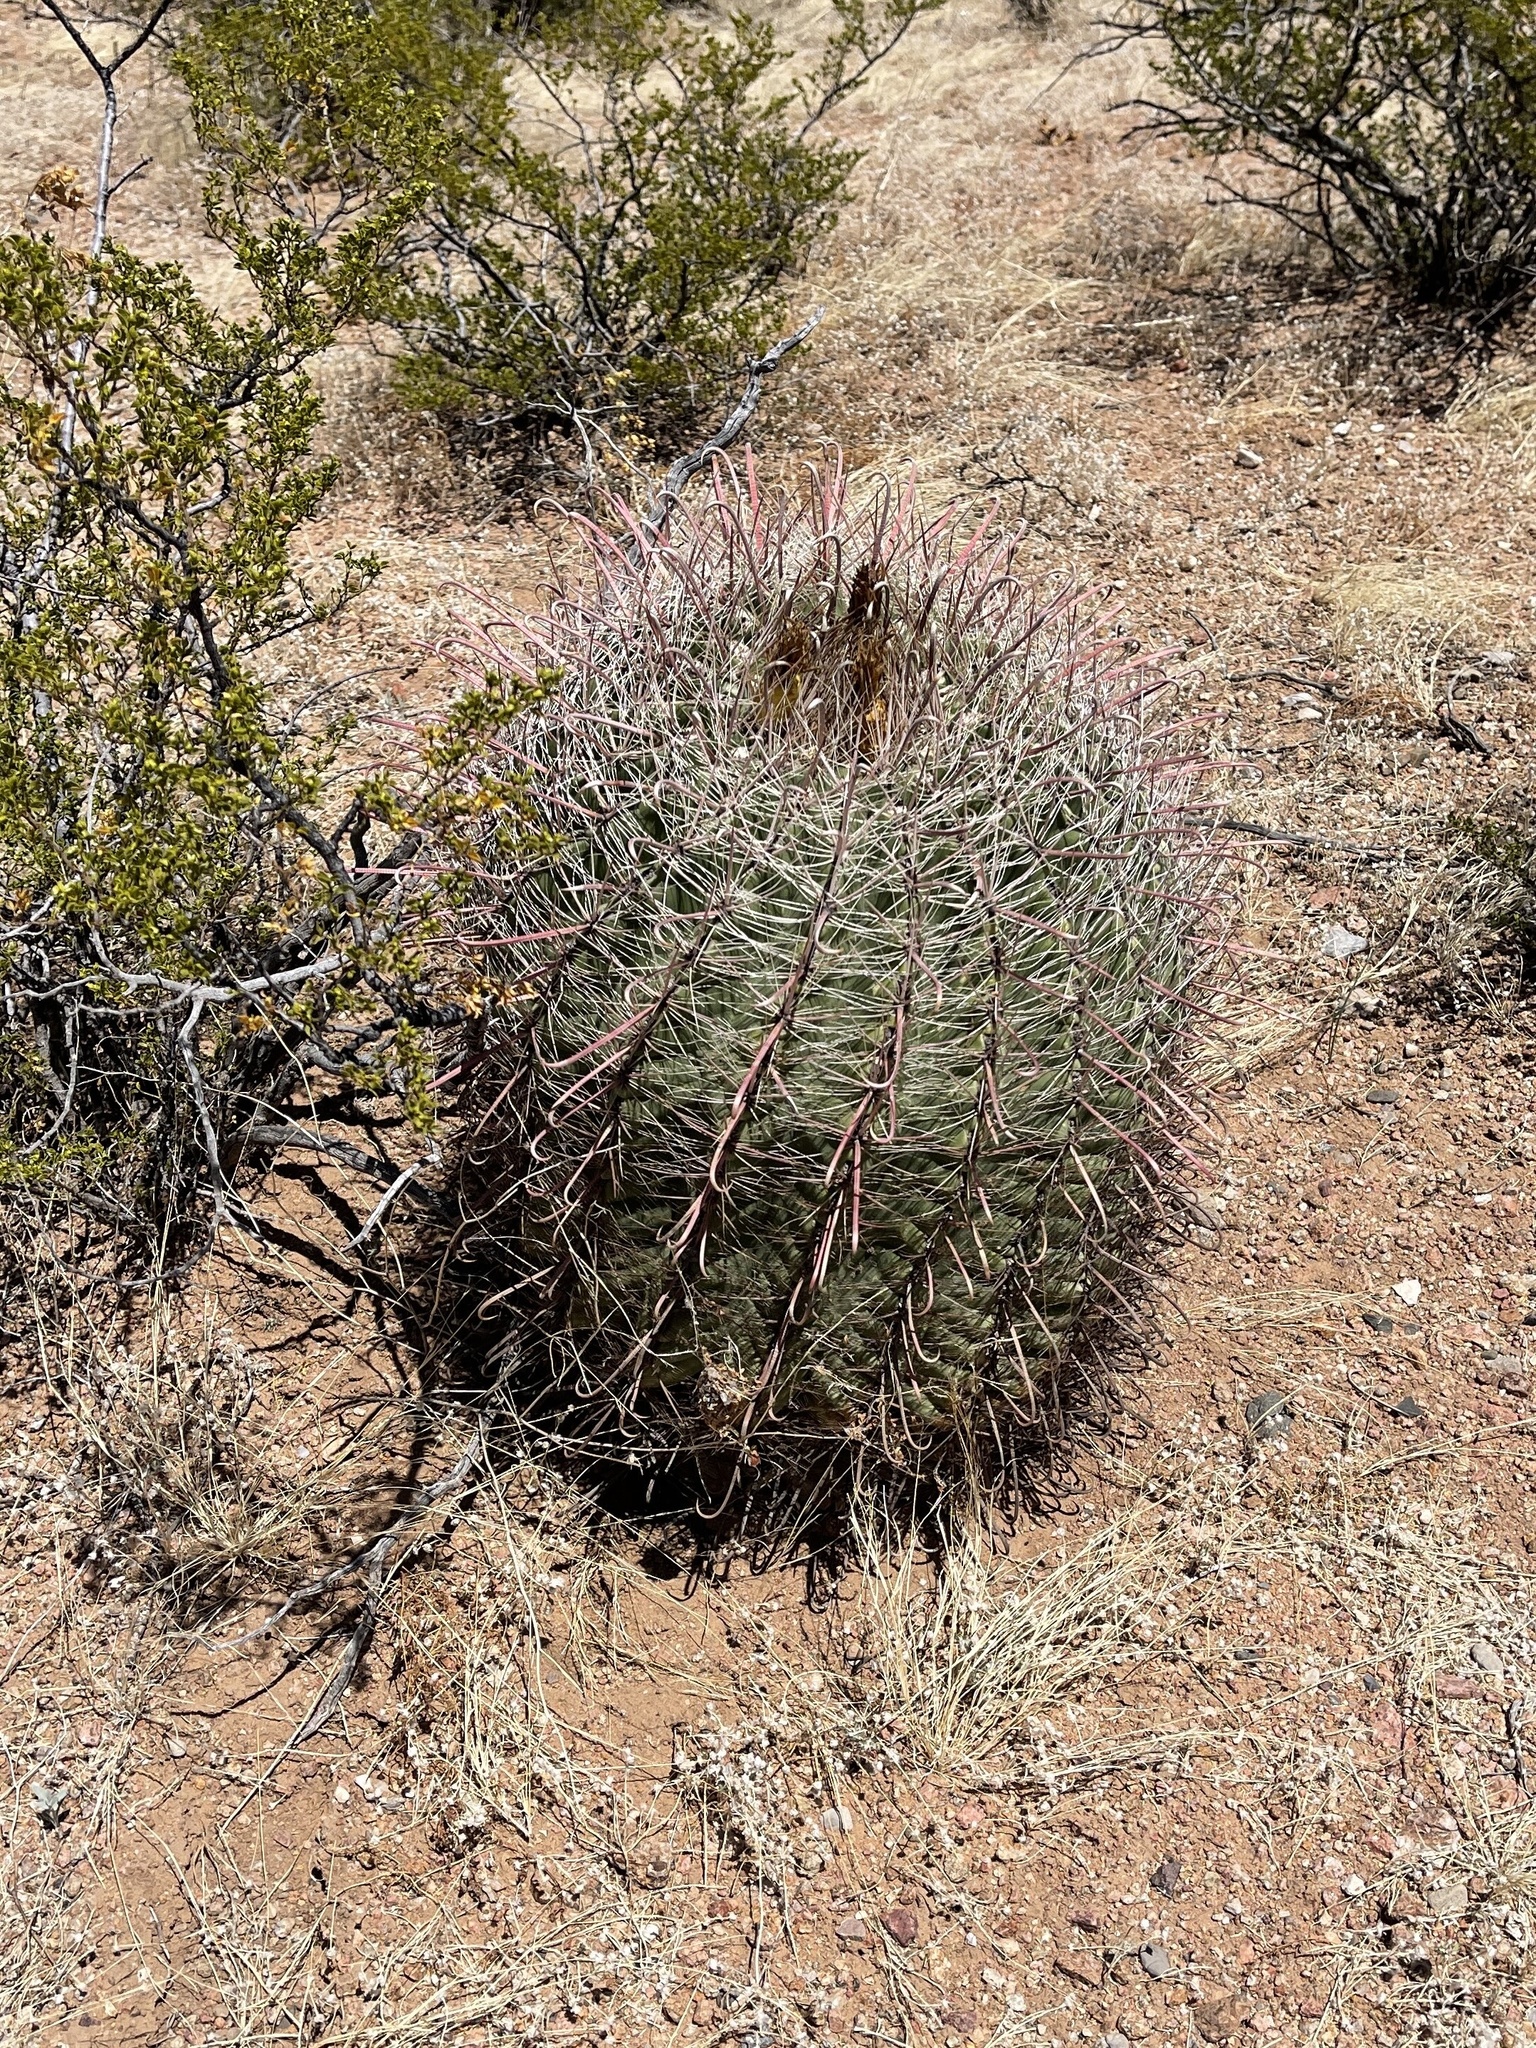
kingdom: Plantae
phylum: Tracheophyta
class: Magnoliopsida
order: Caryophyllales
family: Cactaceae
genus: Ferocactus
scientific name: Ferocactus wislizeni
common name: Candy barrel cactus
